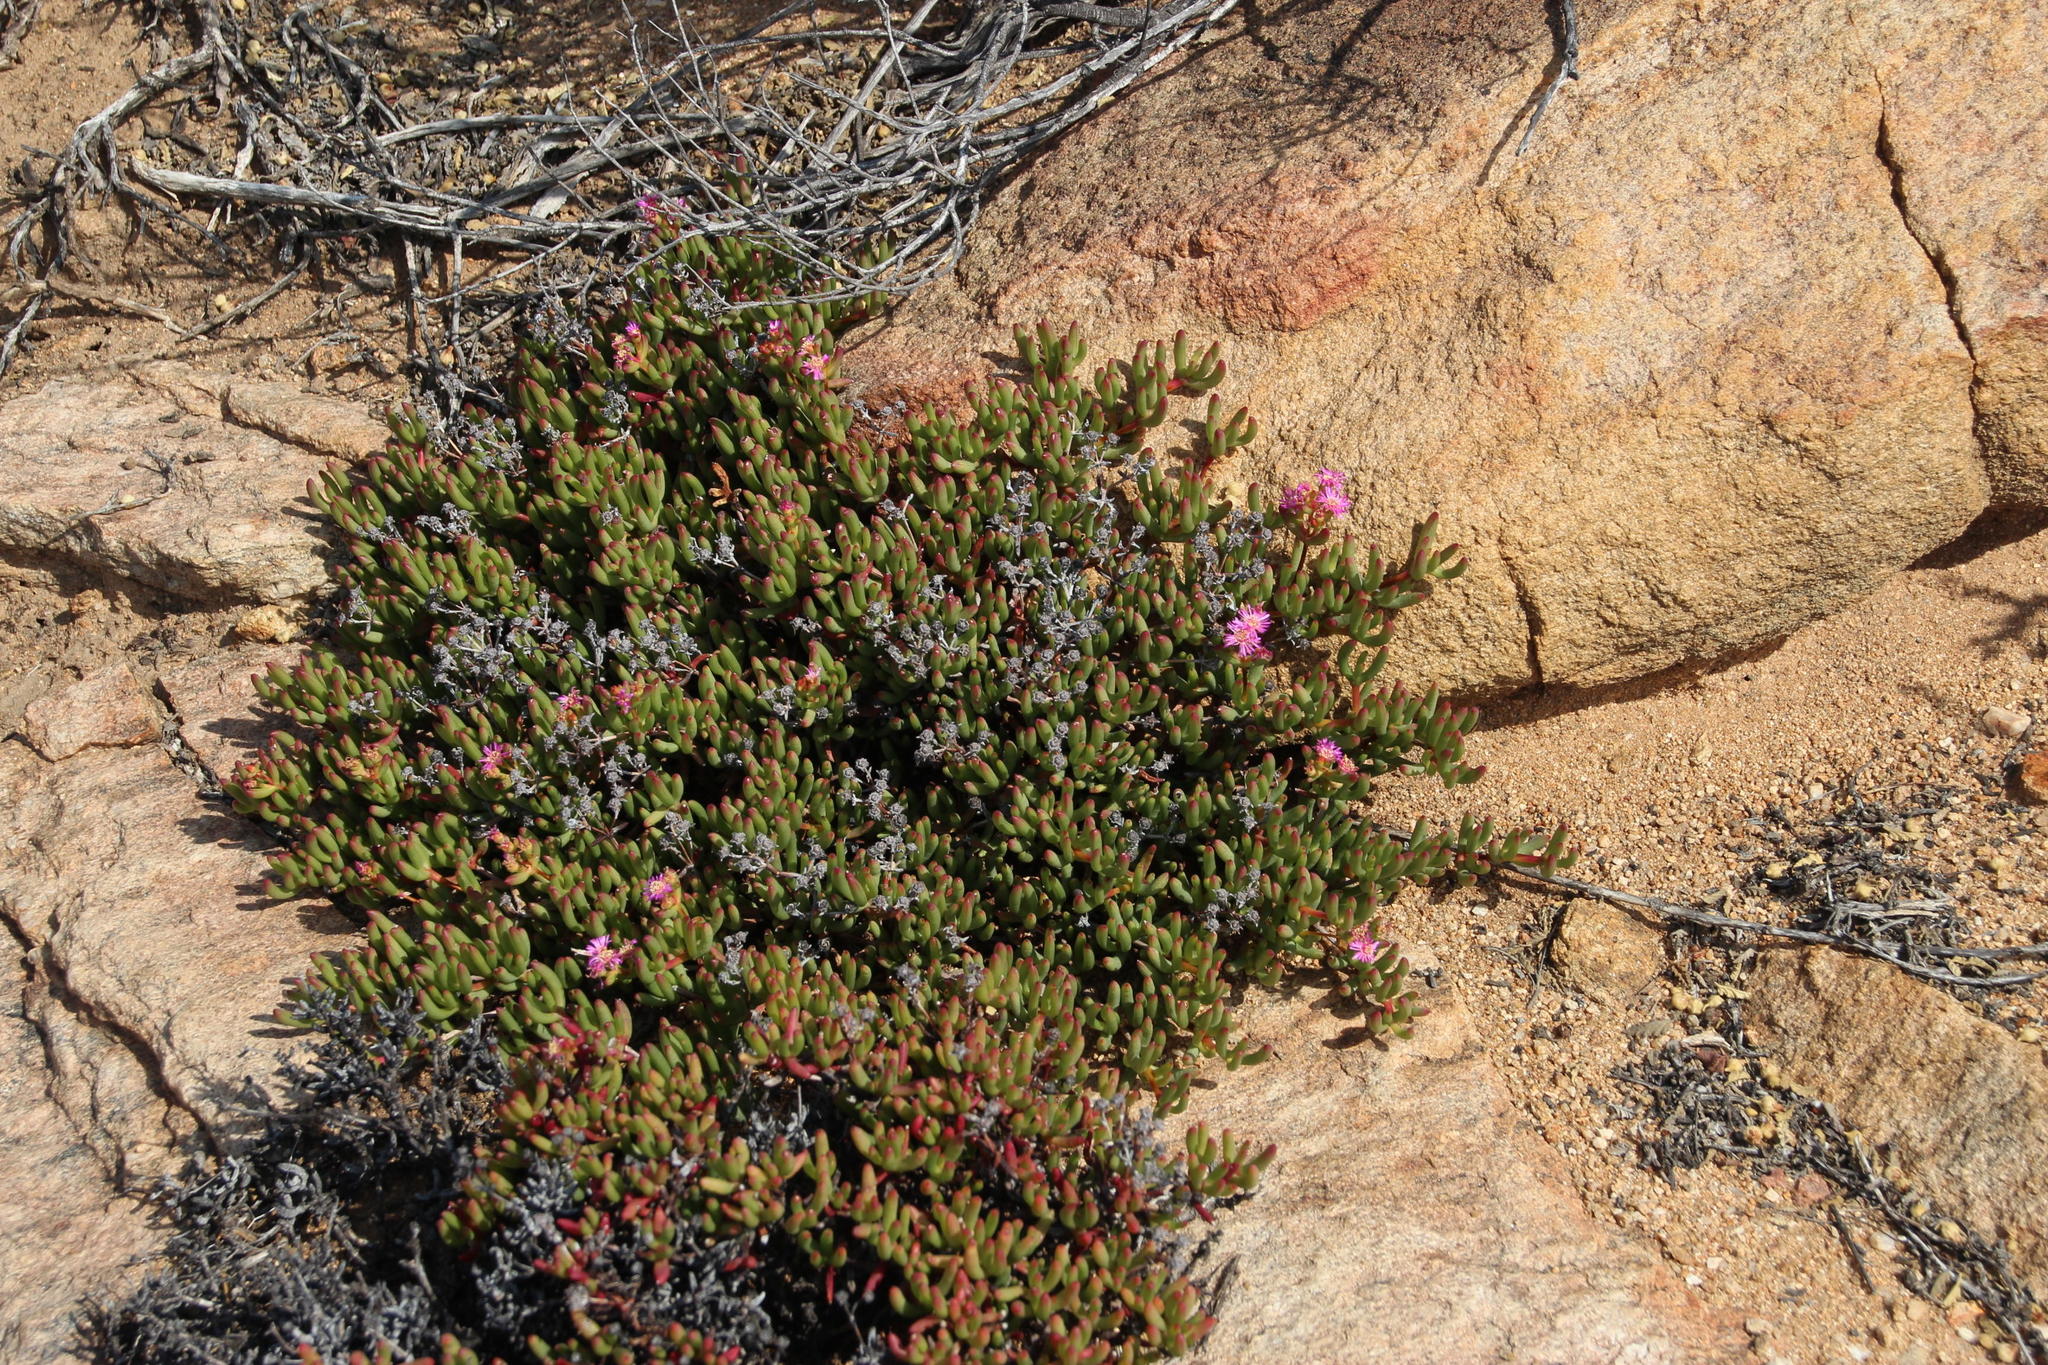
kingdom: Plantae
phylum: Tracheophyta
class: Magnoliopsida
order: Caryophyllales
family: Aizoaceae
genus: Ruschia
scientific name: Ruschia viridifolia
